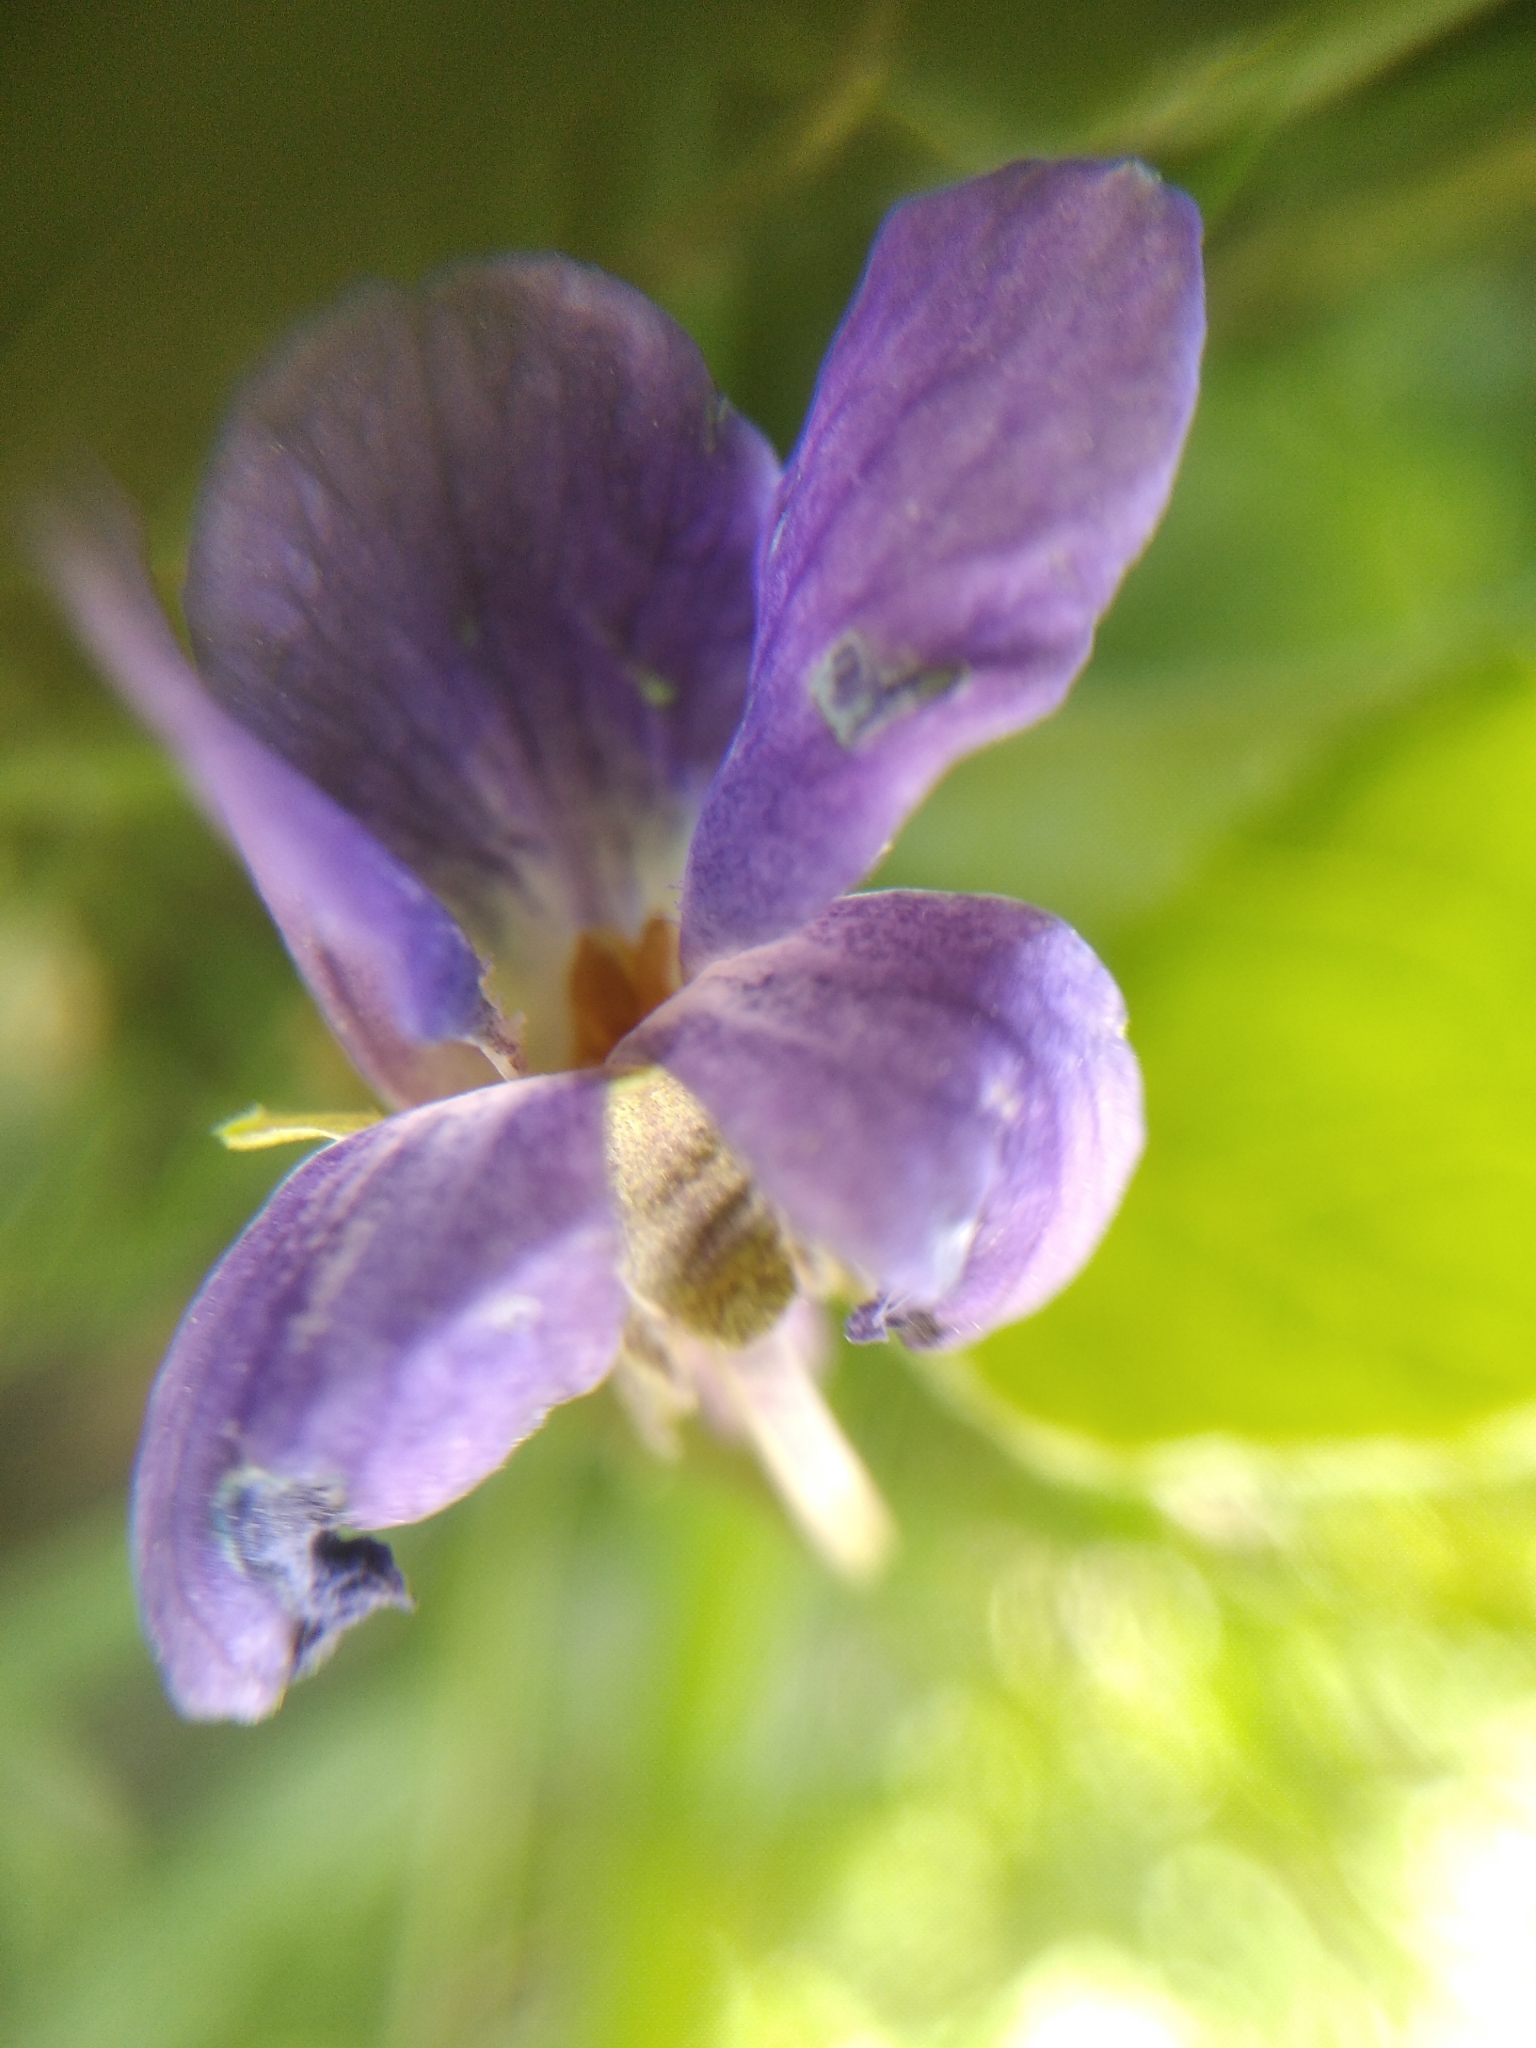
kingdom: Plantae
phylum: Tracheophyta
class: Magnoliopsida
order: Malpighiales
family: Violaceae
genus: Viola
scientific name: Viola odorata
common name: Sweet violet
